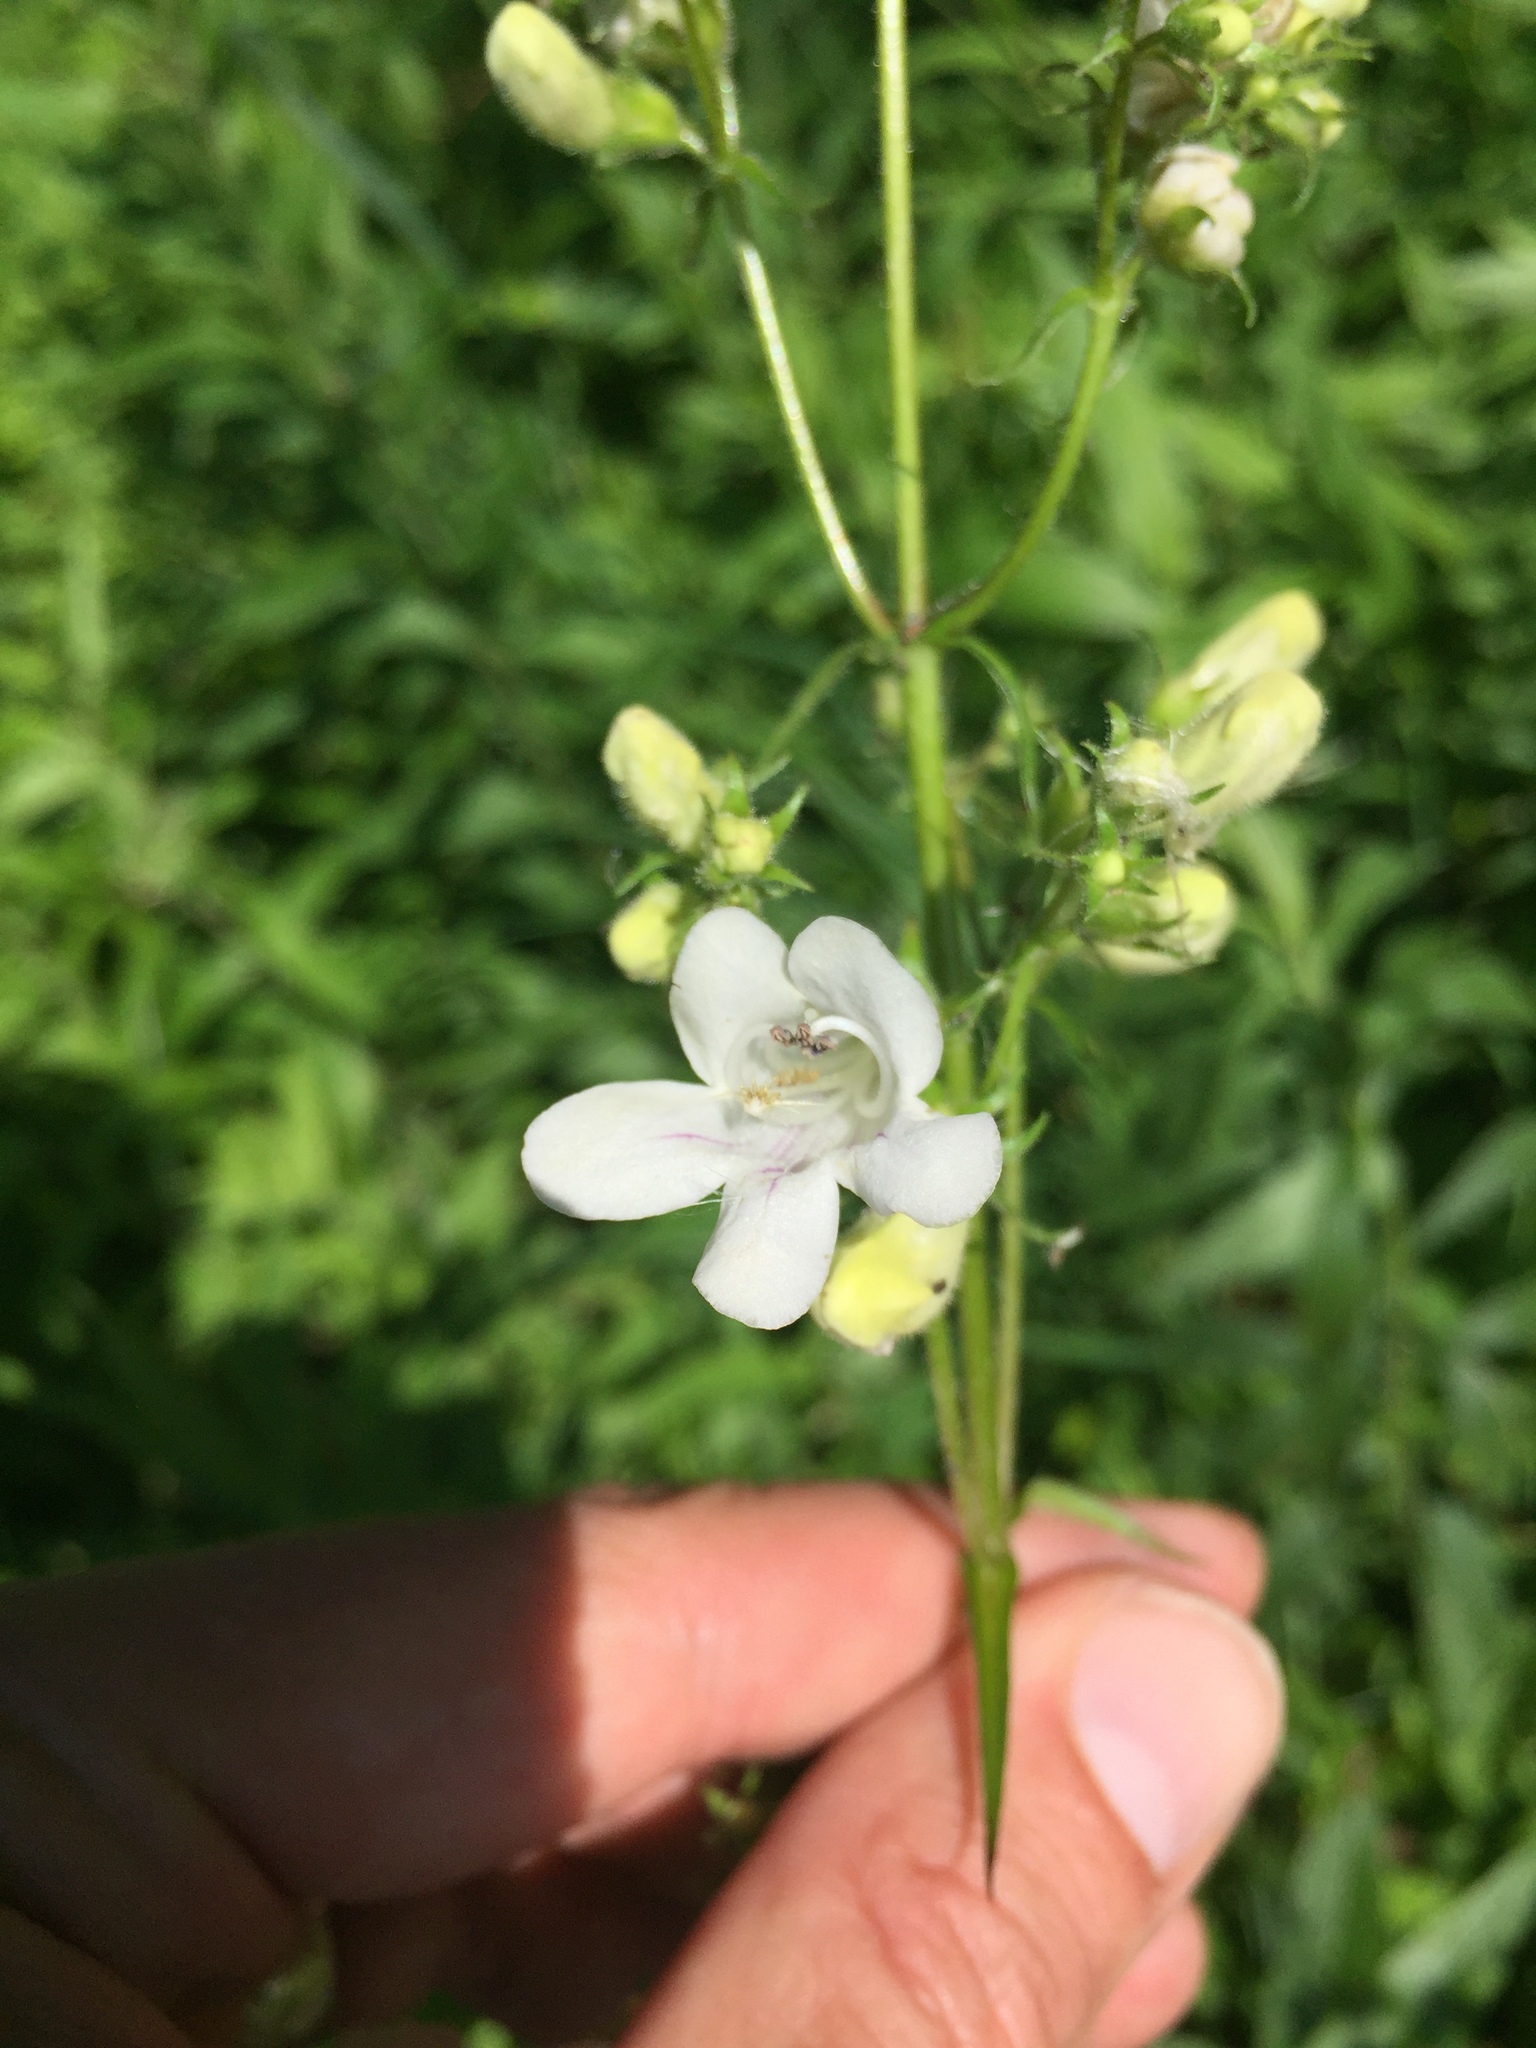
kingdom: Plantae
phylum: Tracheophyta
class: Magnoliopsida
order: Lamiales
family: Plantaginaceae
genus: Penstemon
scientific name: Penstemon digitalis
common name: Foxglove beardtongue
